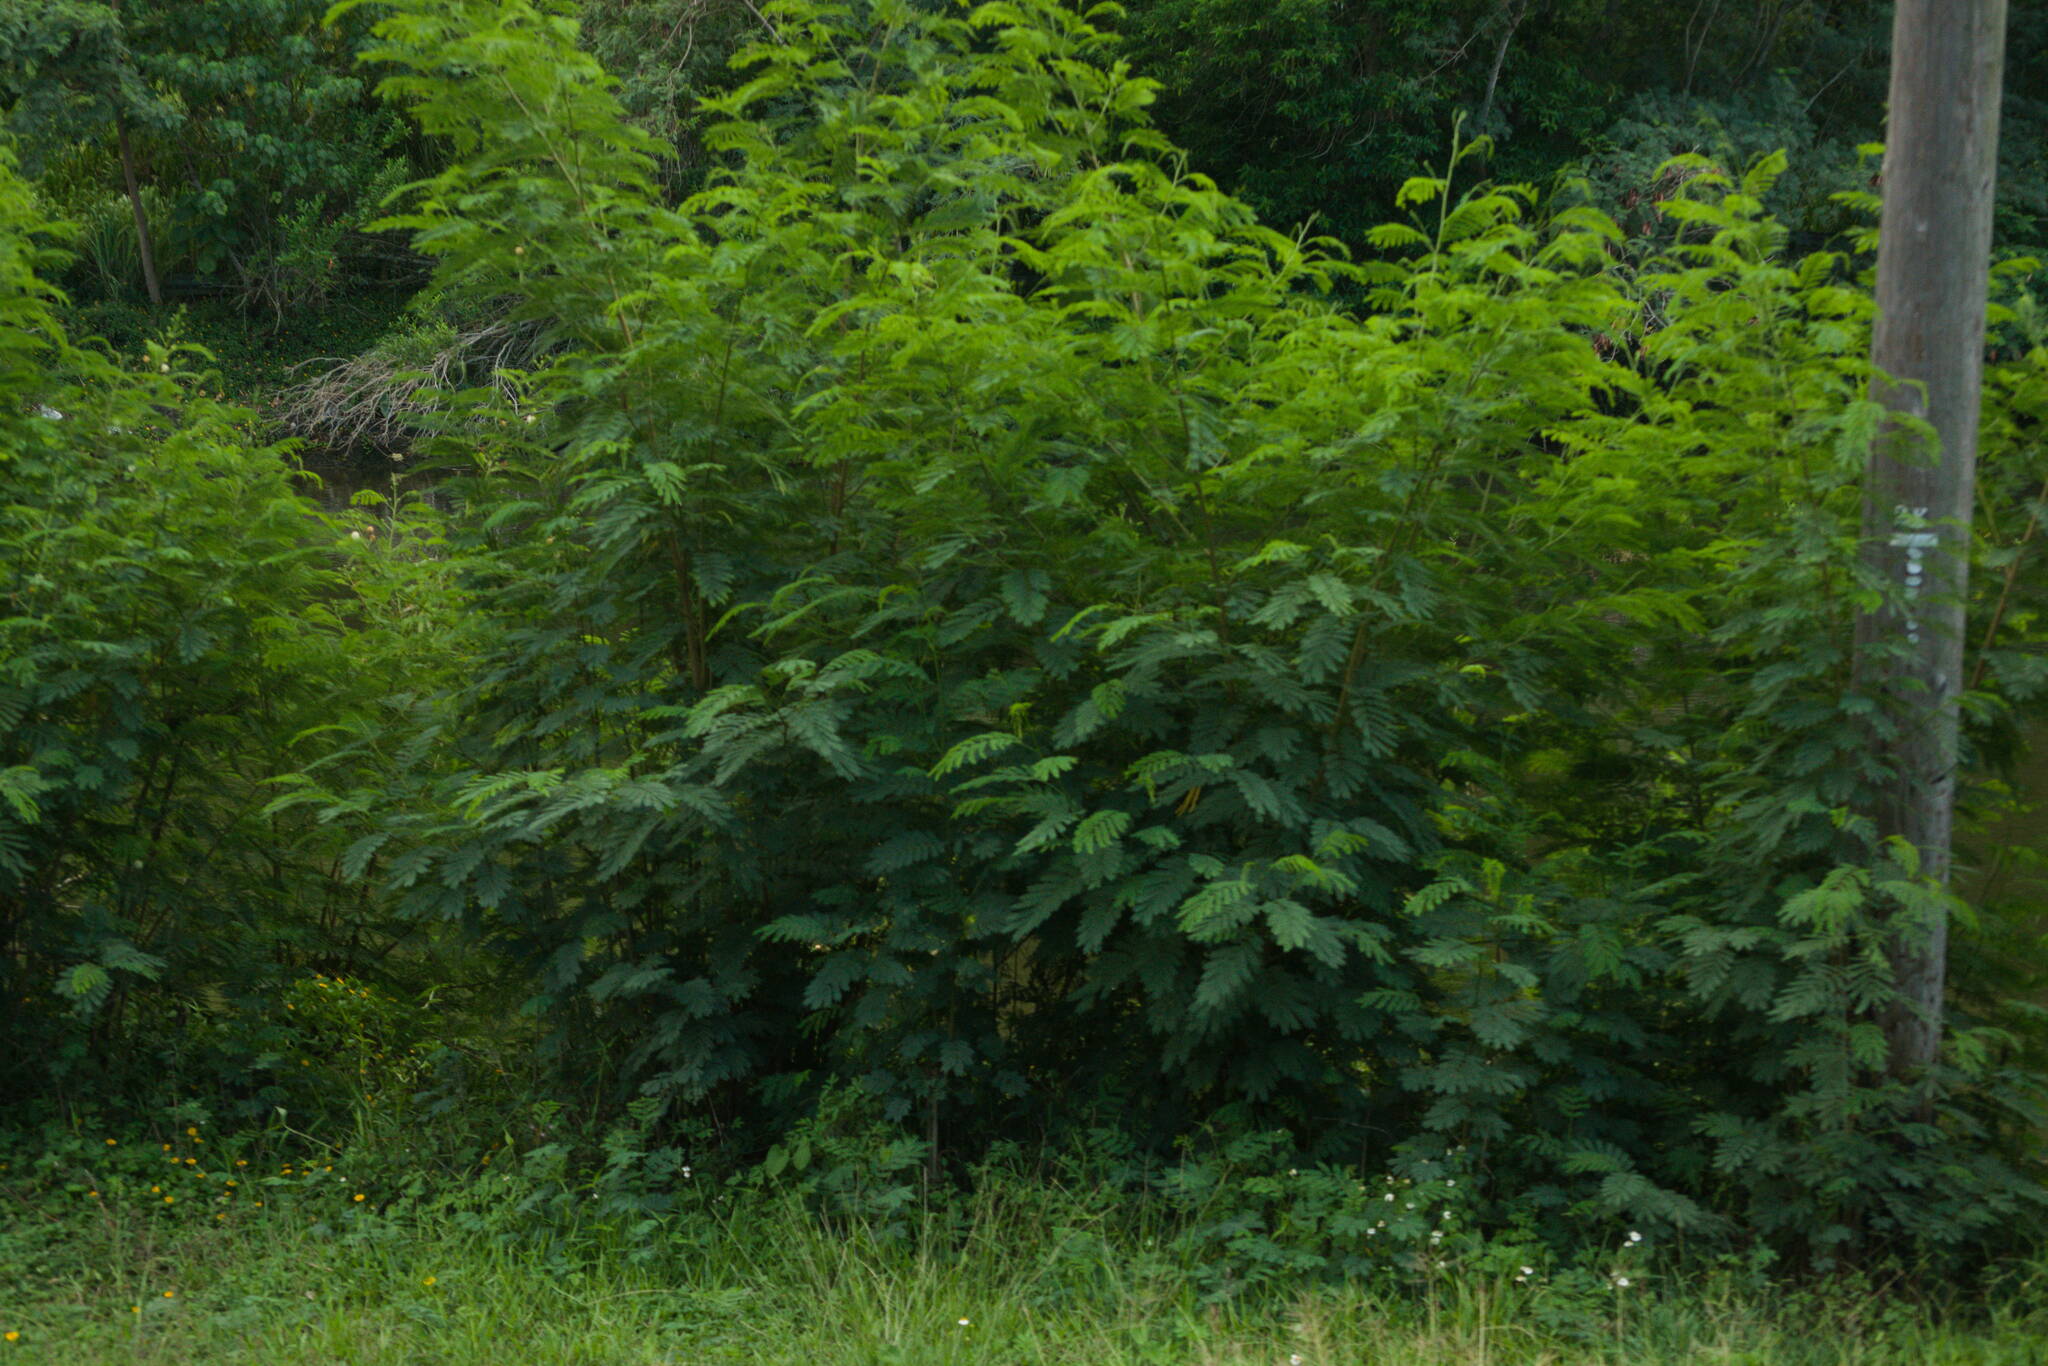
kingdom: Plantae
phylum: Tracheophyta
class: Magnoliopsida
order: Fabales
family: Fabaceae
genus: Falcataria
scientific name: Falcataria falcata
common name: Moluccan albizia
